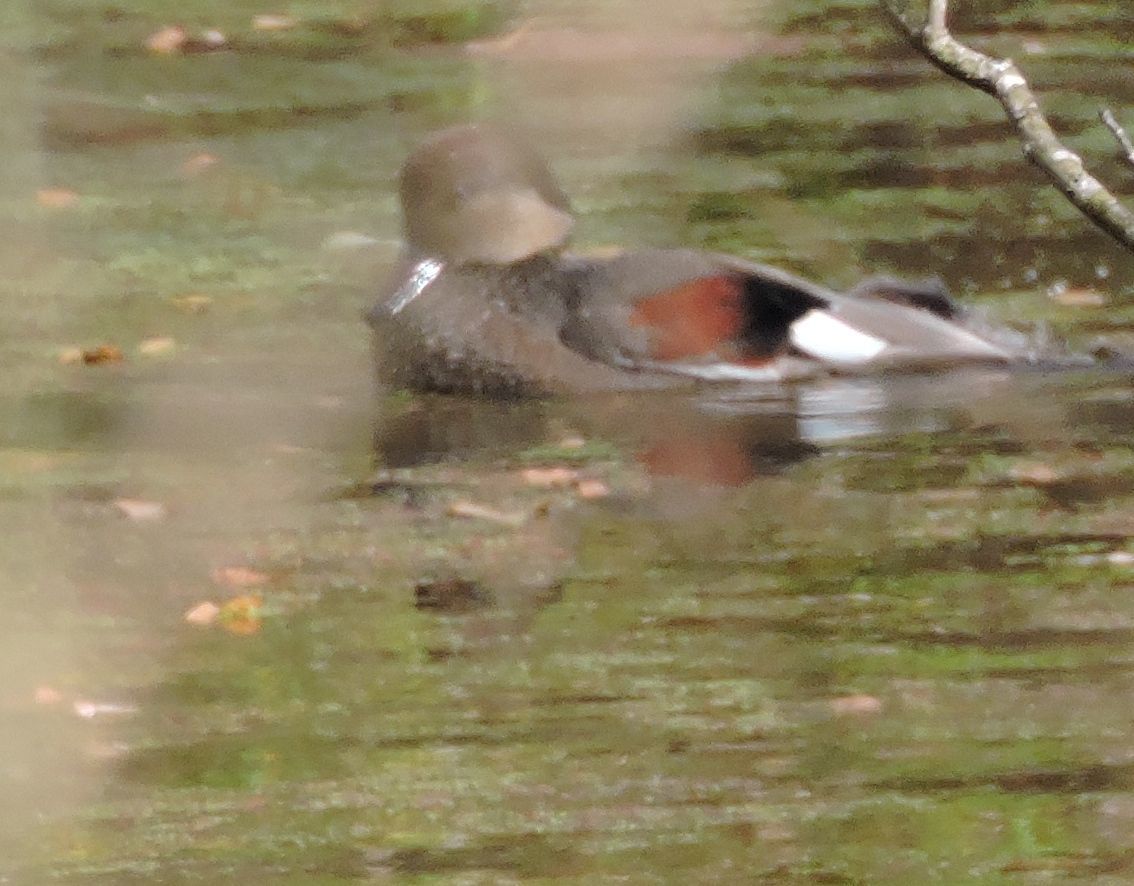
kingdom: Animalia
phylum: Chordata
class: Aves
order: Anseriformes
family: Anatidae
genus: Mareca
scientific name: Mareca strepera
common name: Gadwall
